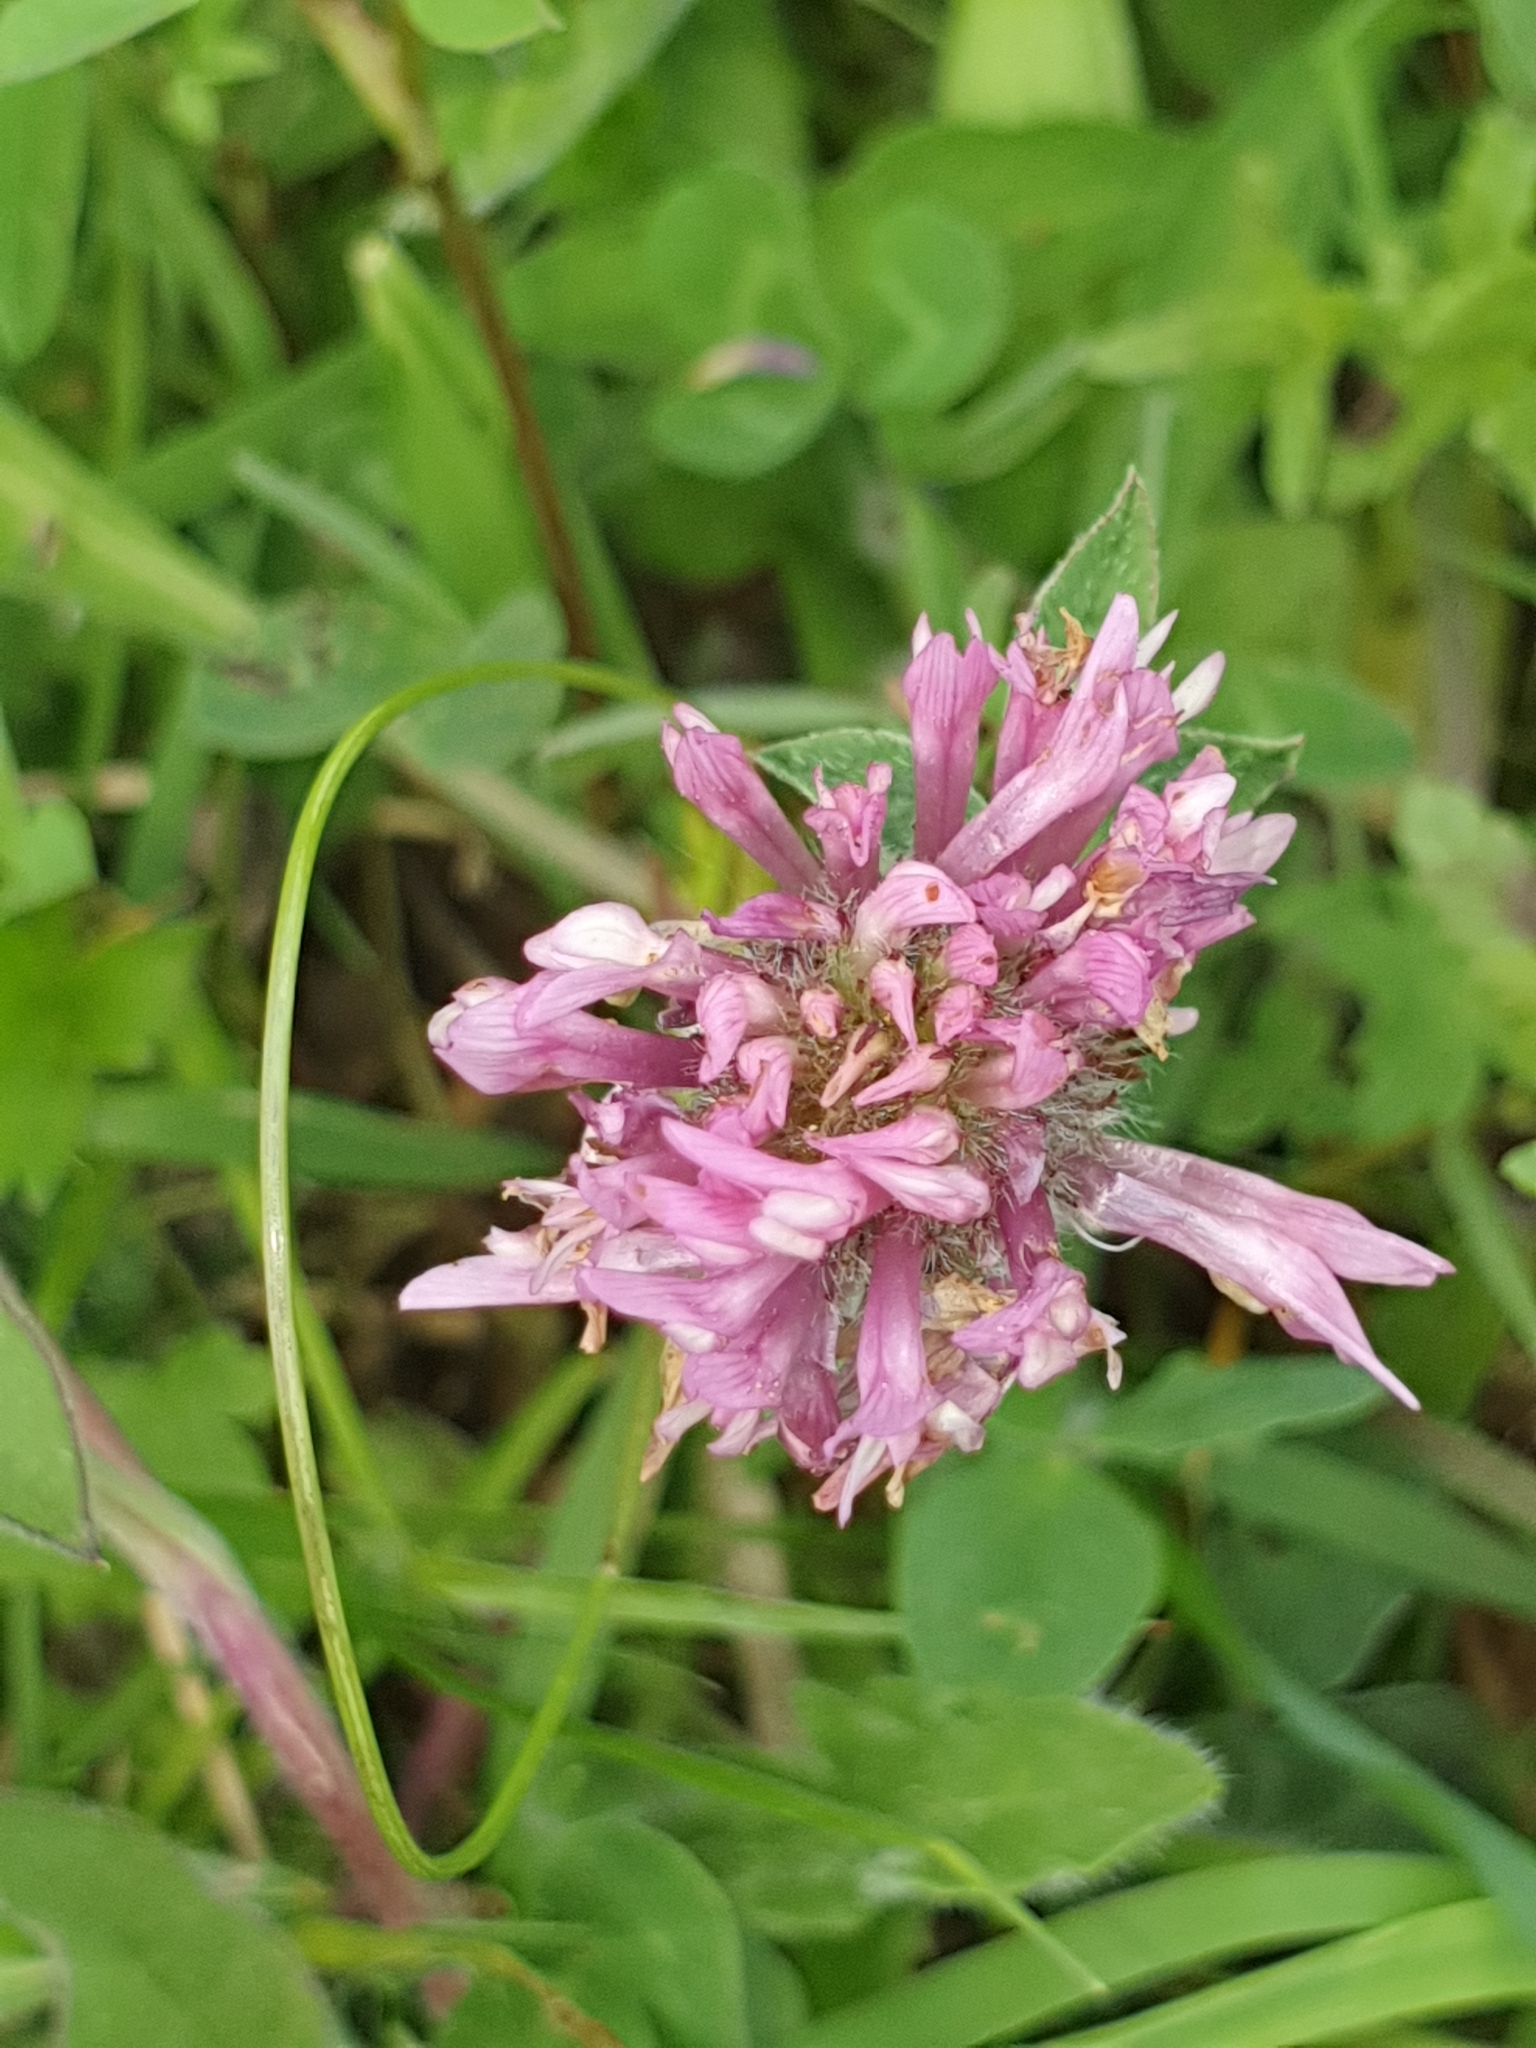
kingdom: Plantae
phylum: Tracheophyta
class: Magnoliopsida
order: Fabales
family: Fabaceae
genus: Trifolium
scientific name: Trifolium pratense
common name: Red clover
